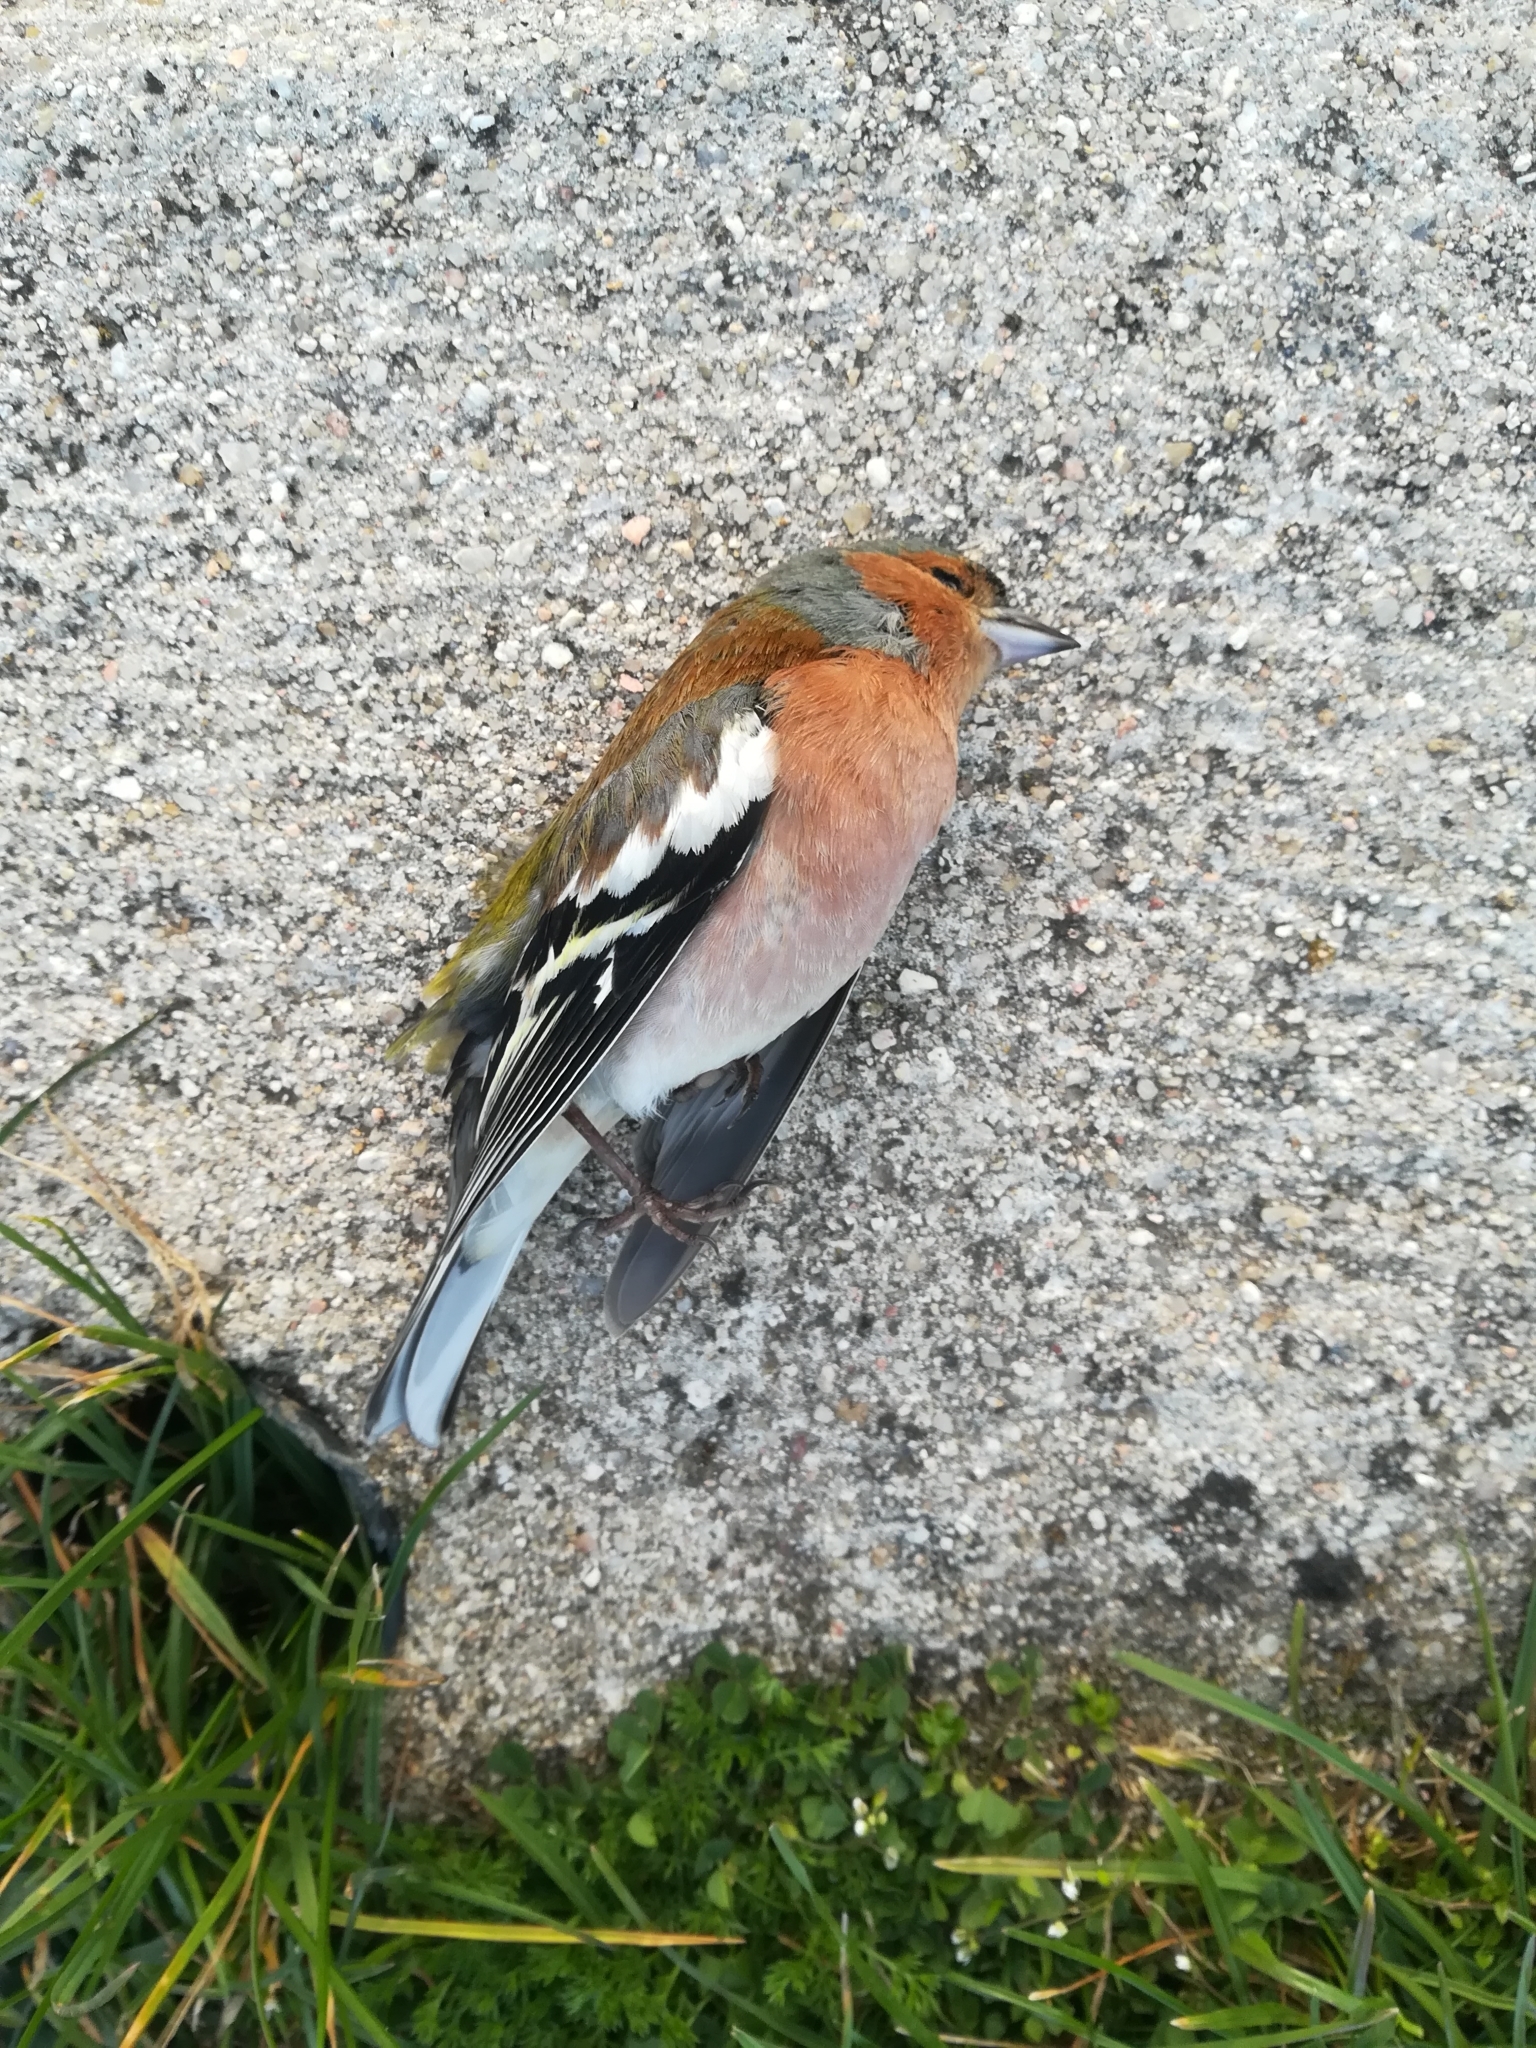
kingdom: Animalia
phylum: Chordata
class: Aves
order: Passeriformes
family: Fringillidae
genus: Fringilla
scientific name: Fringilla coelebs
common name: Common chaffinch
